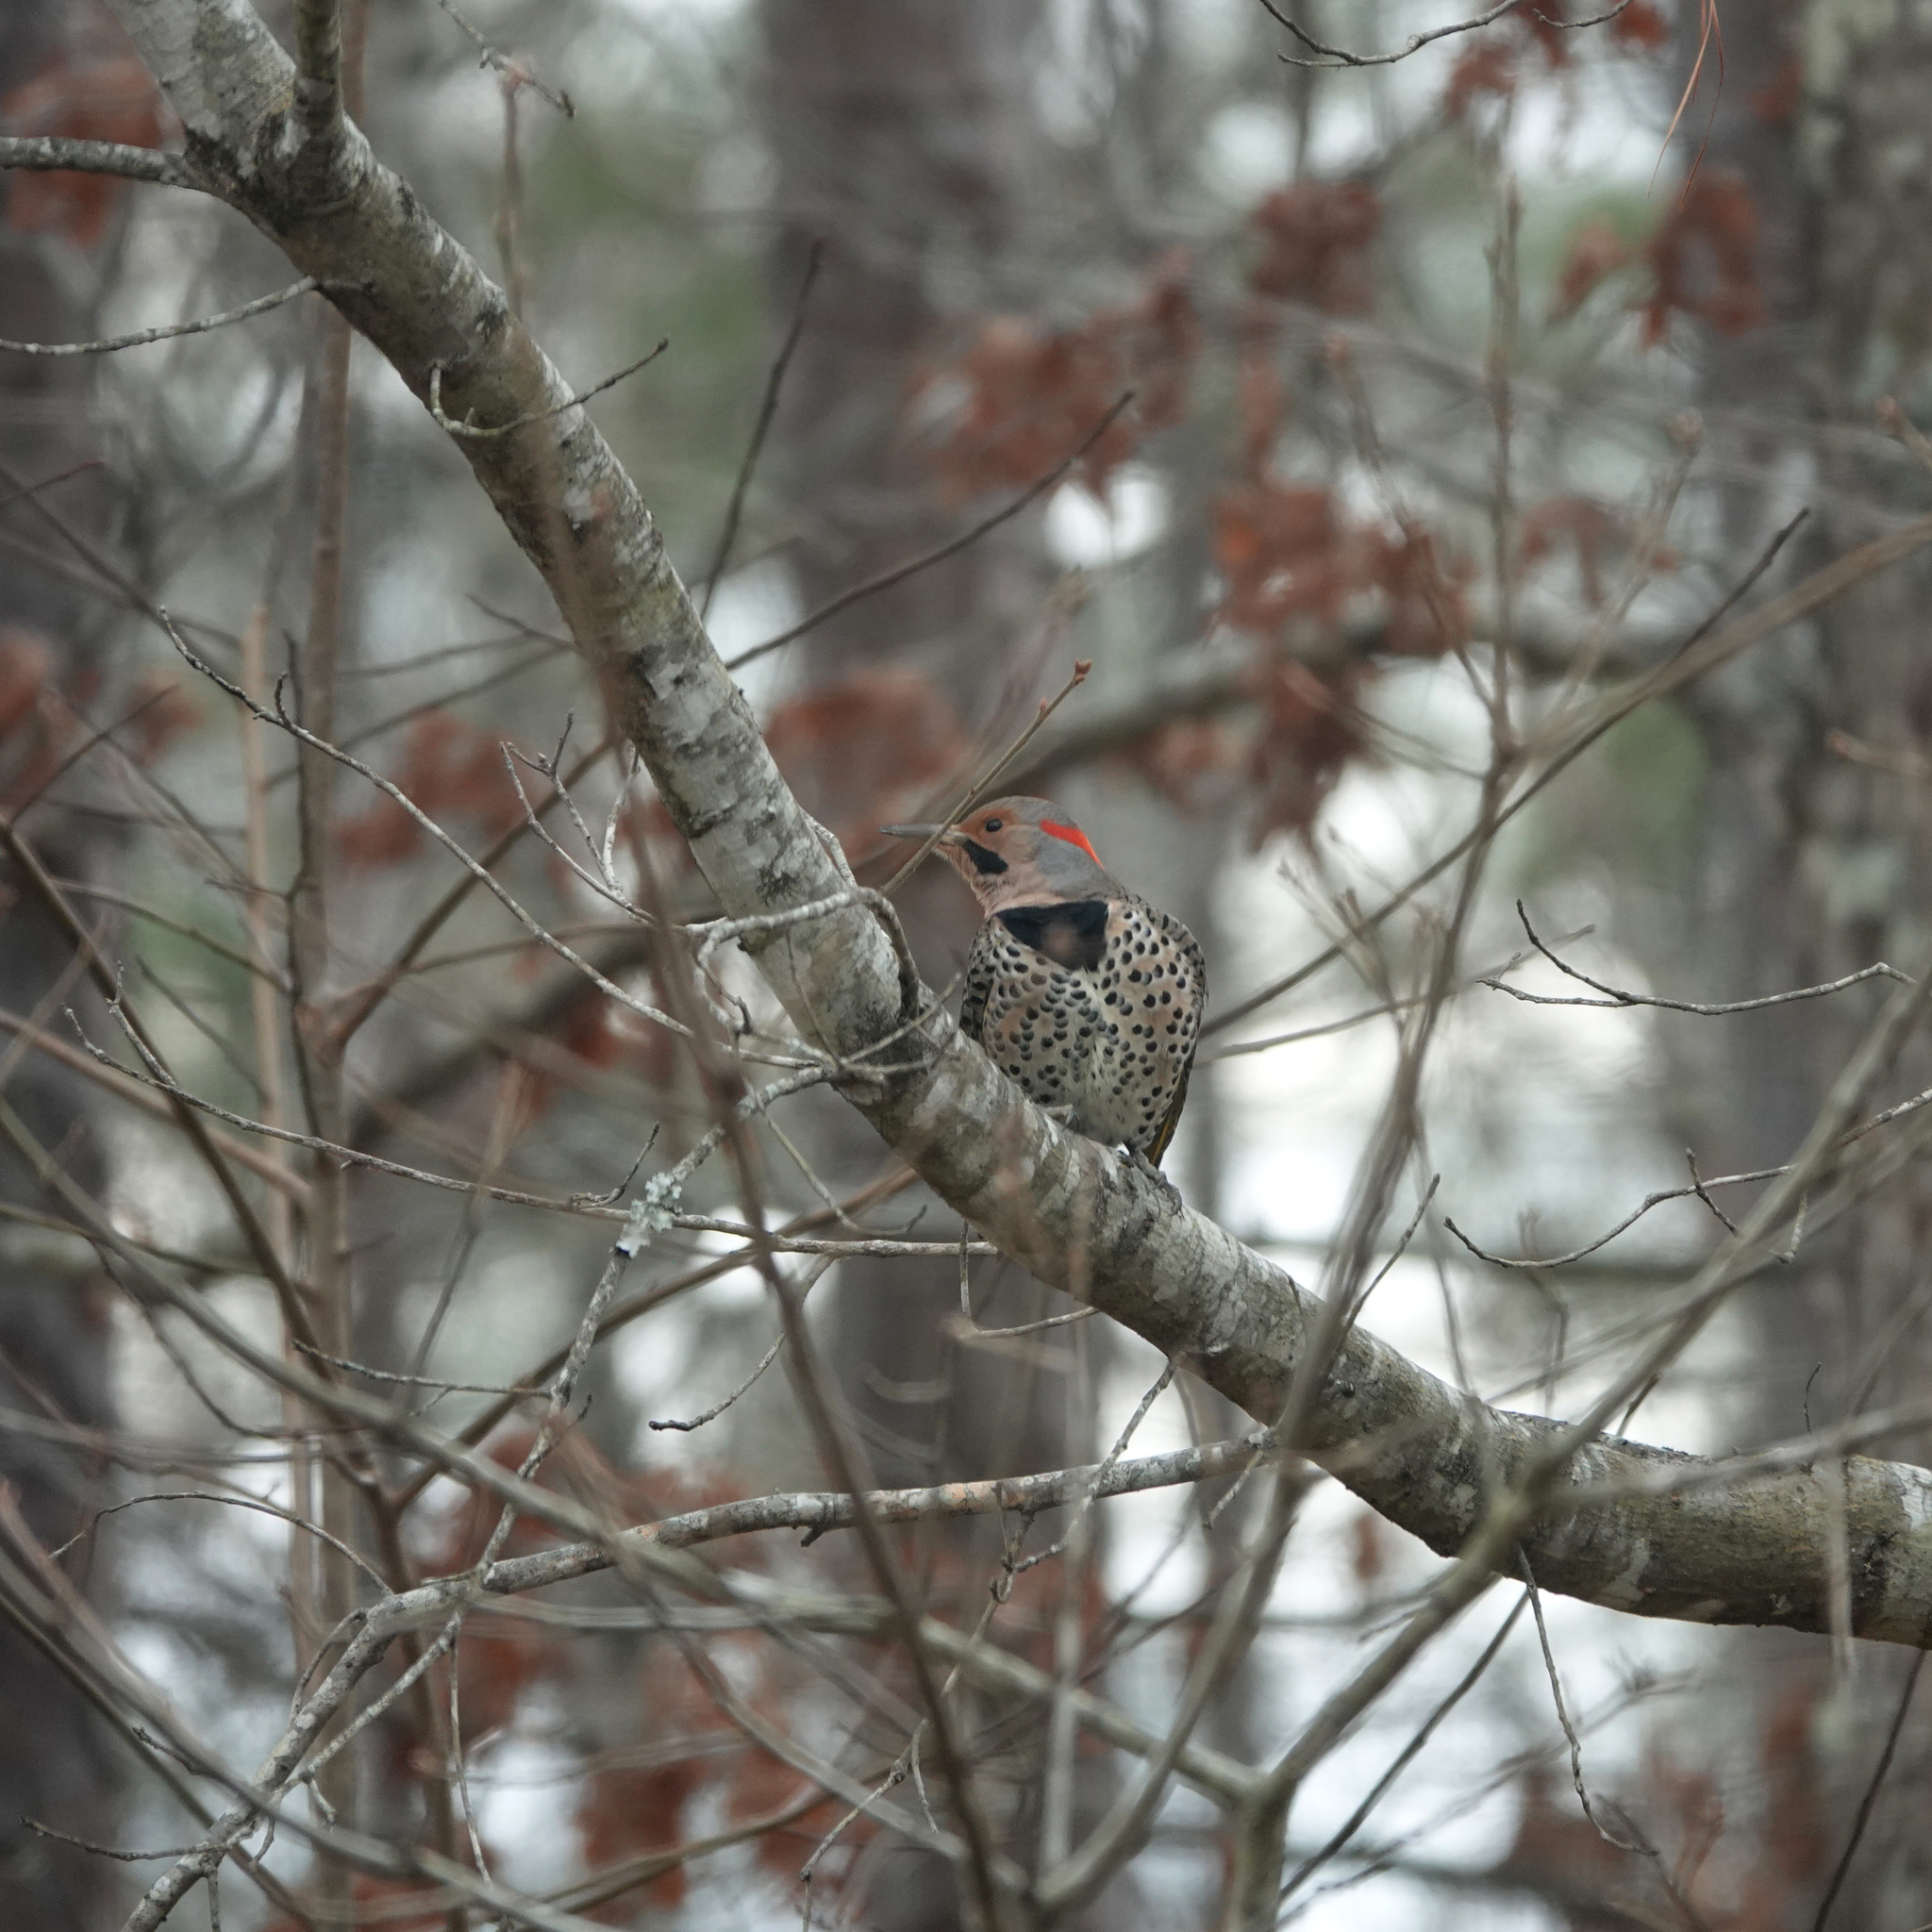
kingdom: Animalia
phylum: Chordata
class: Aves
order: Piciformes
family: Picidae
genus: Colaptes
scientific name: Colaptes auratus
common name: Northern flicker
